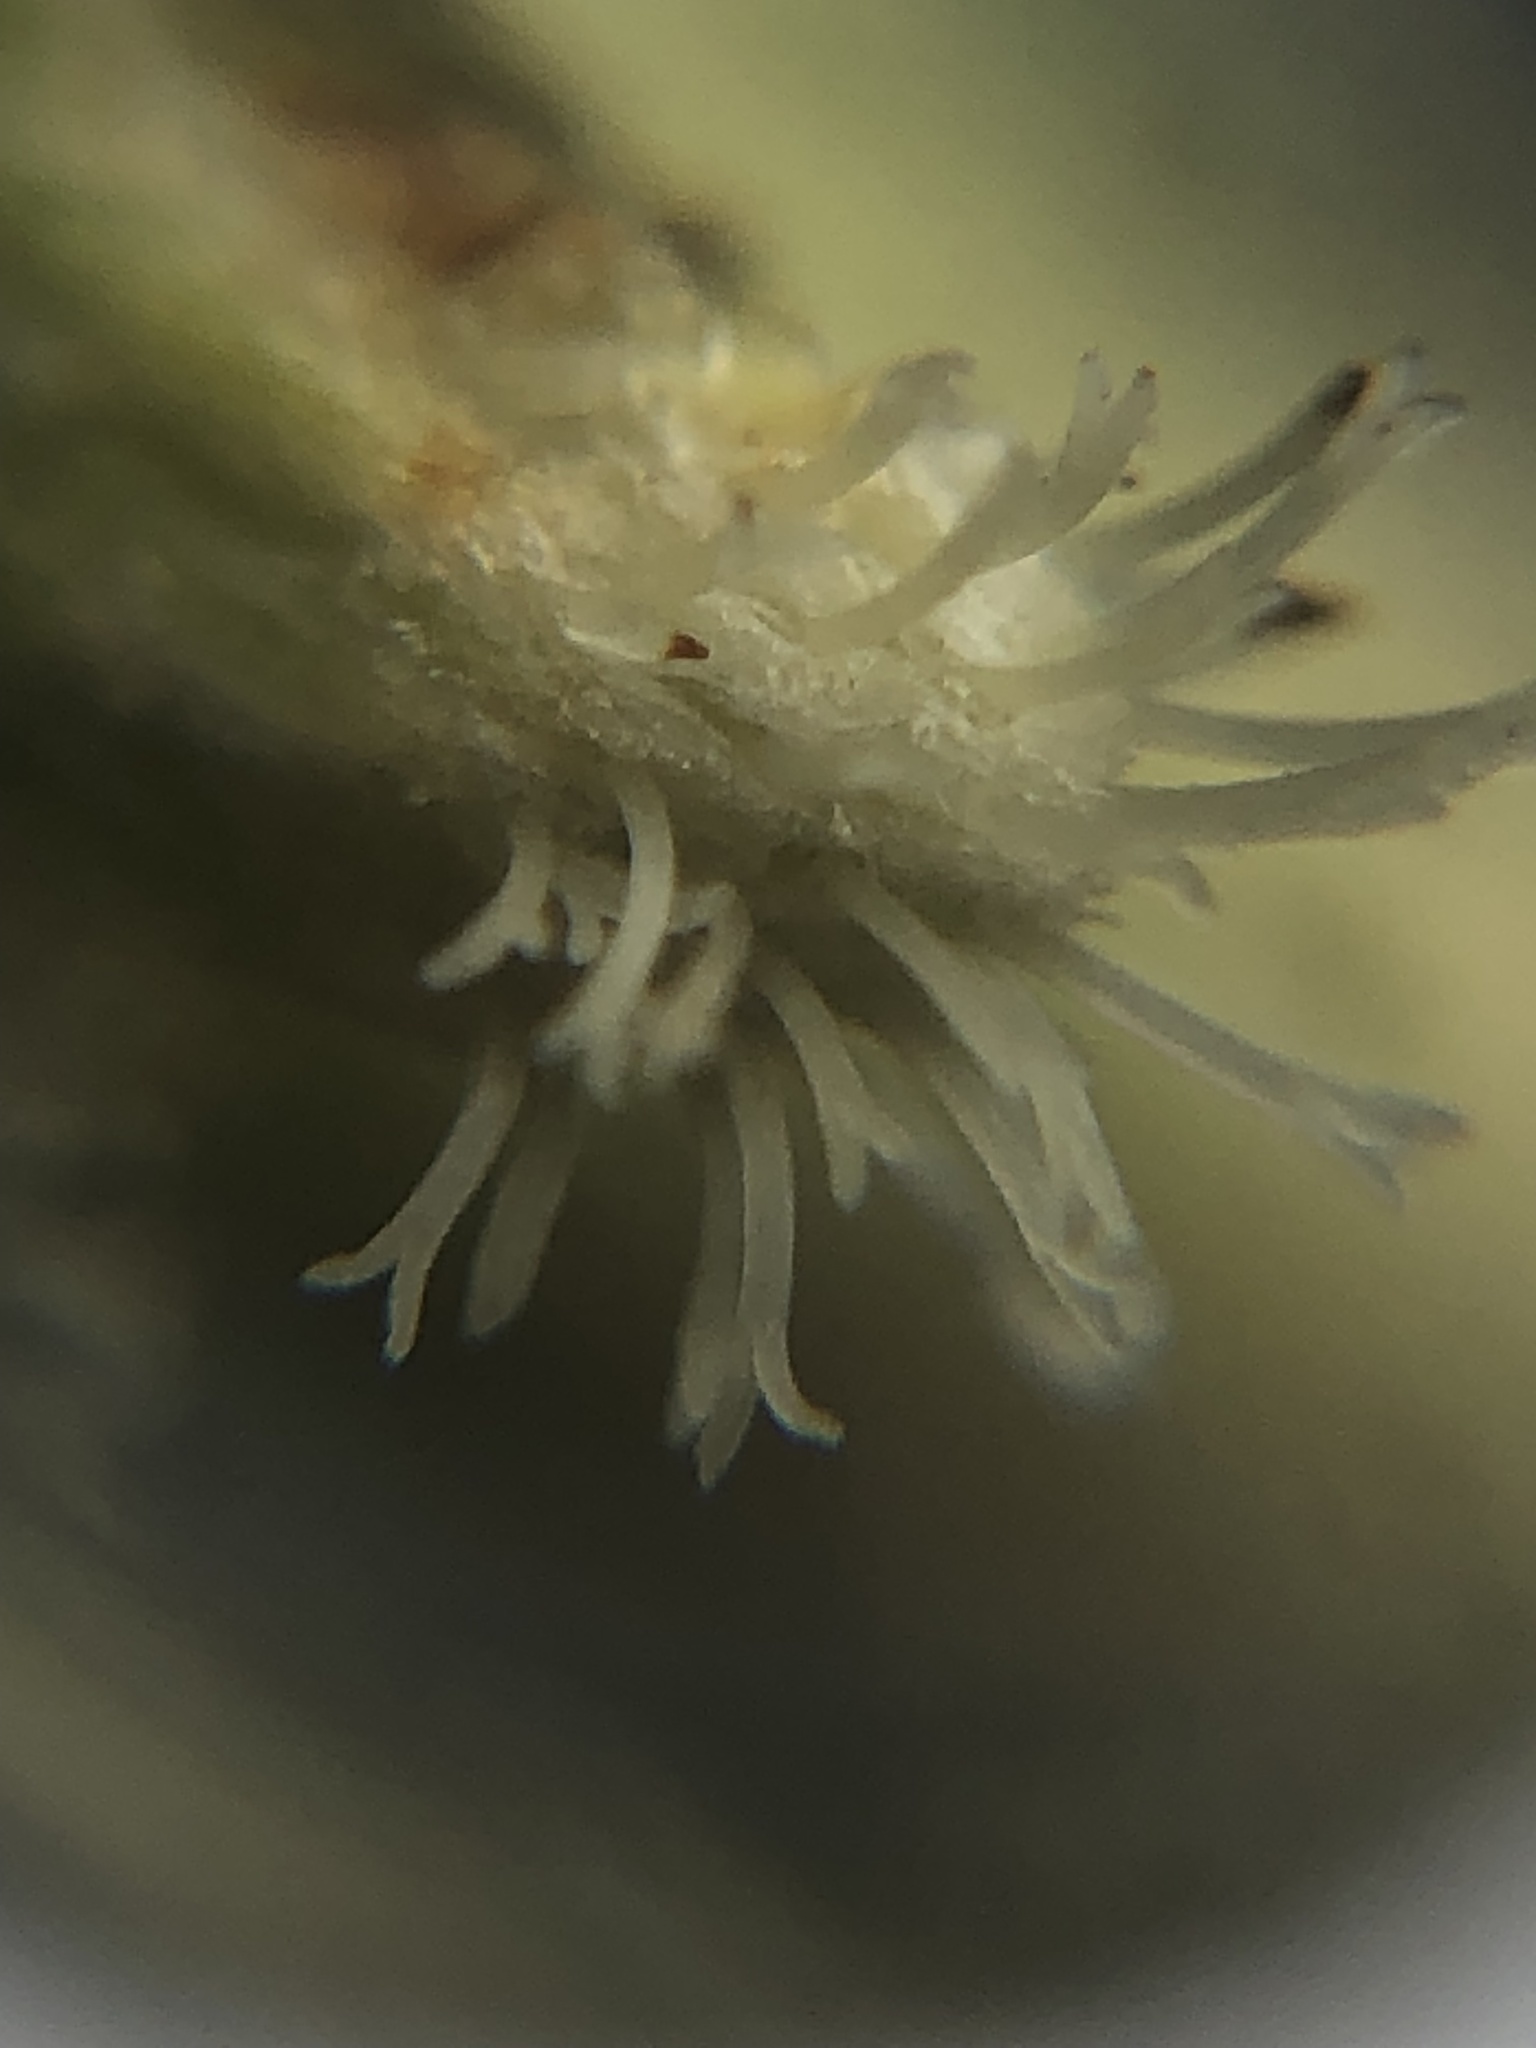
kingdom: Plantae
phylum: Tracheophyta
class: Magnoliopsida
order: Asterales
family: Asteraceae
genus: Baccharis
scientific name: Baccharis pilularis
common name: Coyotebrush
